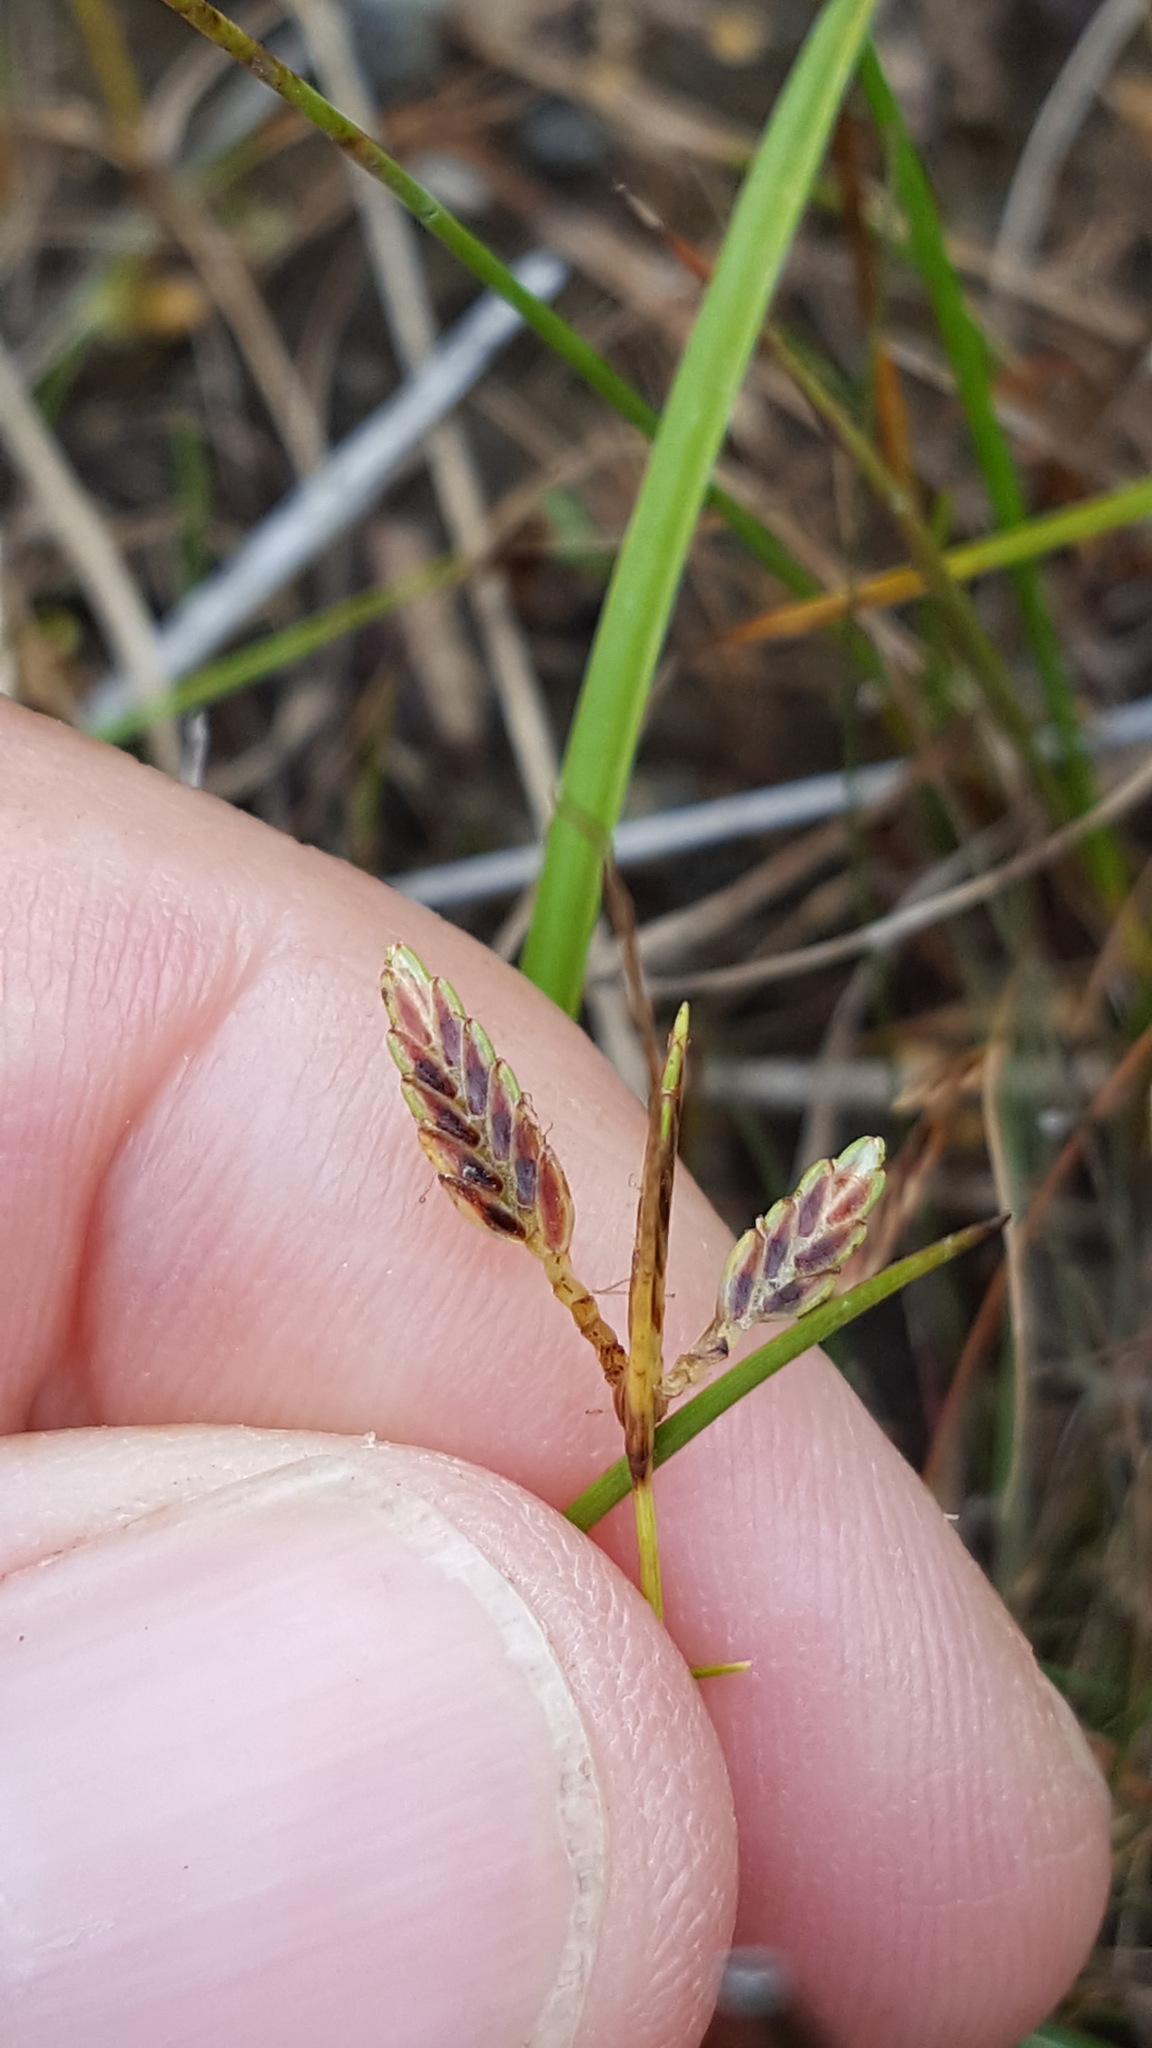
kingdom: Plantae
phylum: Tracheophyta
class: Liliopsida
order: Poales
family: Cyperaceae
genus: Cyperus
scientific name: Cyperus bipartitus
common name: Brook flatsedge
